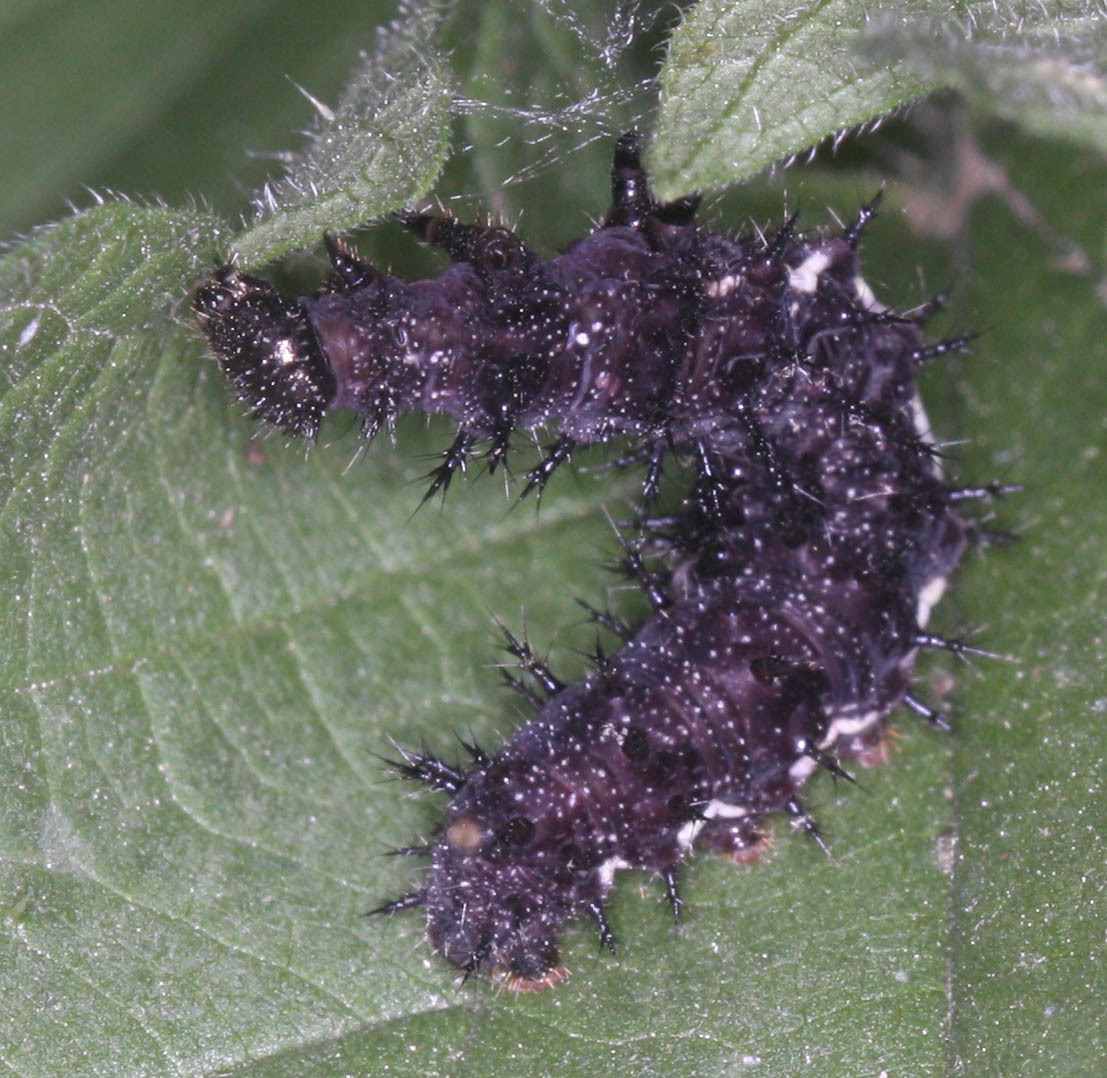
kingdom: Animalia
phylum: Arthropoda
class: Insecta
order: Lepidoptera
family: Nymphalidae
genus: Vanessa
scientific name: Vanessa atalanta
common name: Red admiral
